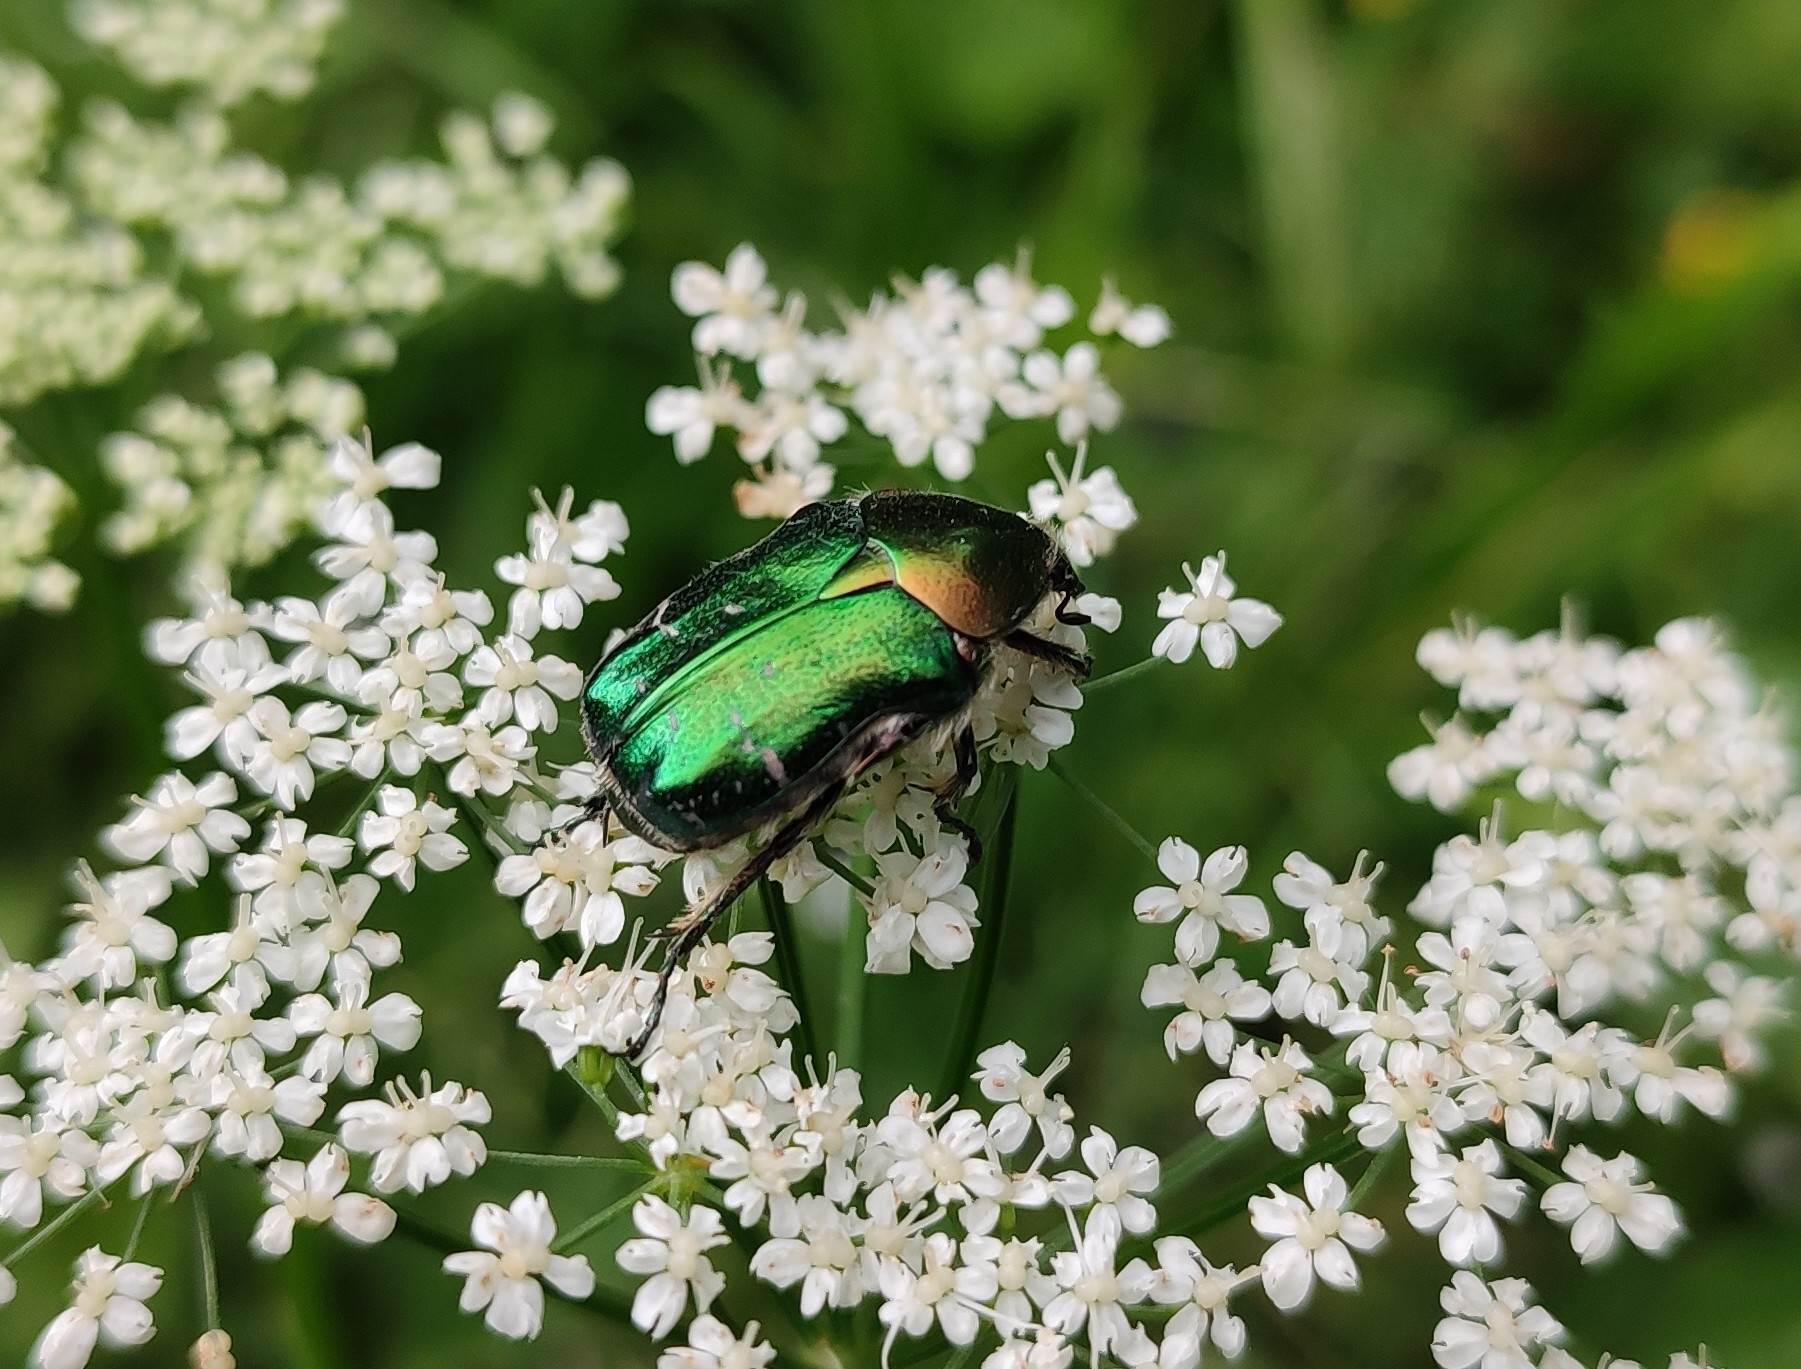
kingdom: Animalia
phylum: Arthropoda
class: Insecta
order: Coleoptera
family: Scarabaeidae
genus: Cetonia
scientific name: Cetonia aurata
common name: Rose chafer
